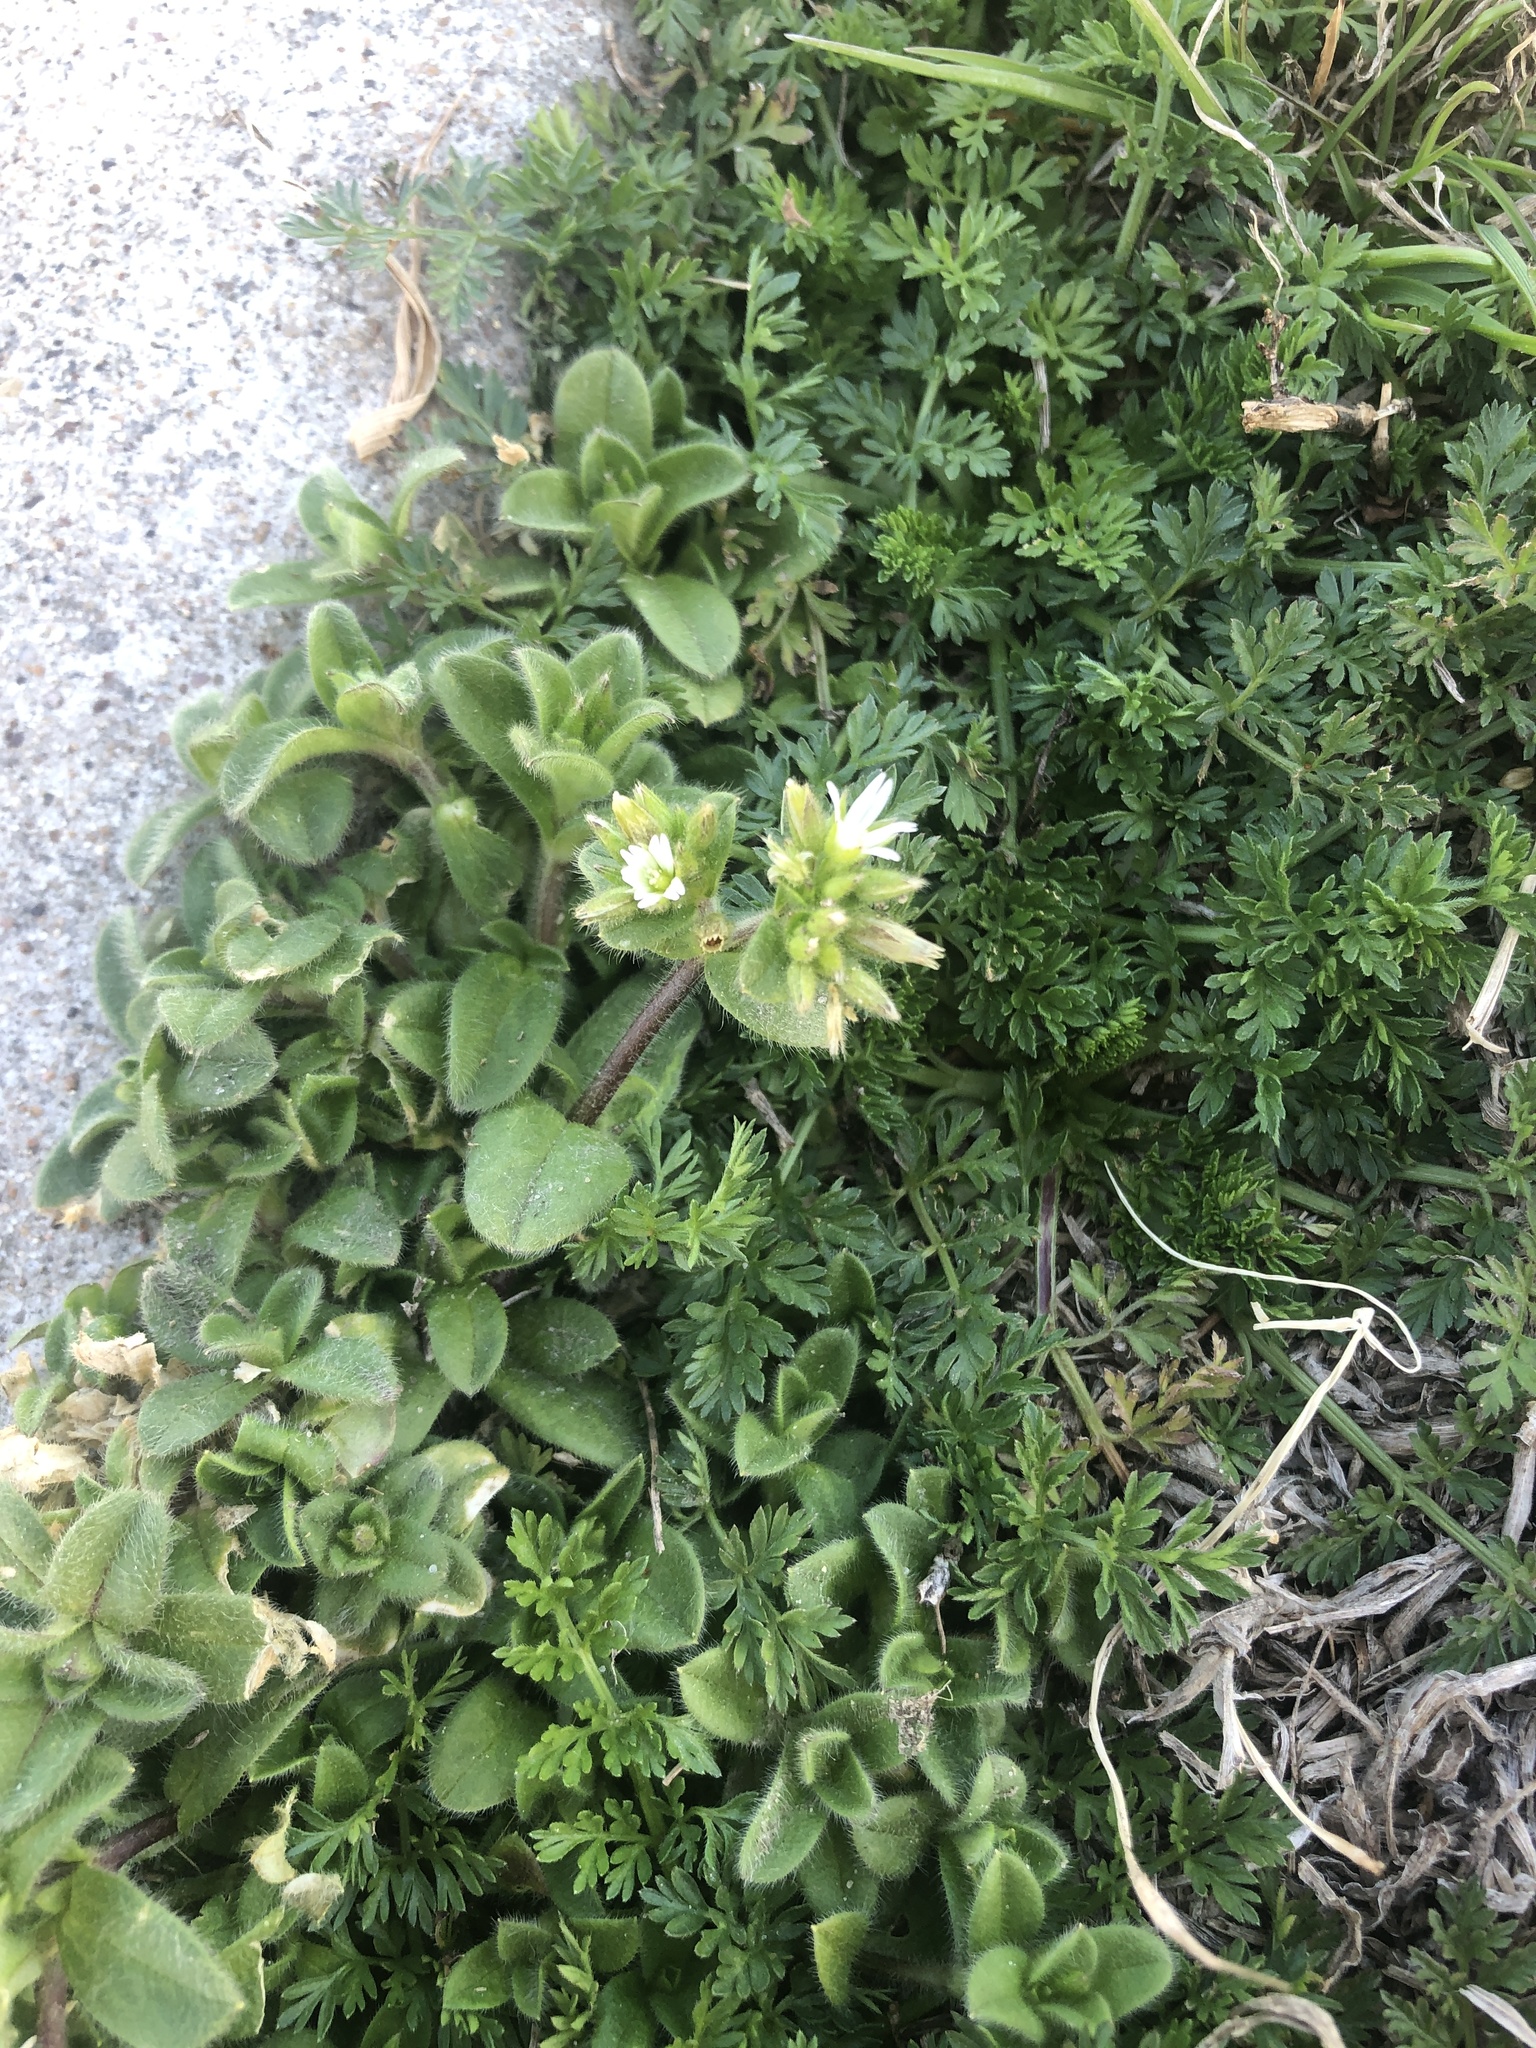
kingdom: Plantae
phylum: Tracheophyta
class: Magnoliopsida
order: Caryophyllales
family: Caryophyllaceae
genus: Cerastium
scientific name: Cerastium glomeratum
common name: Sticky chickweed
